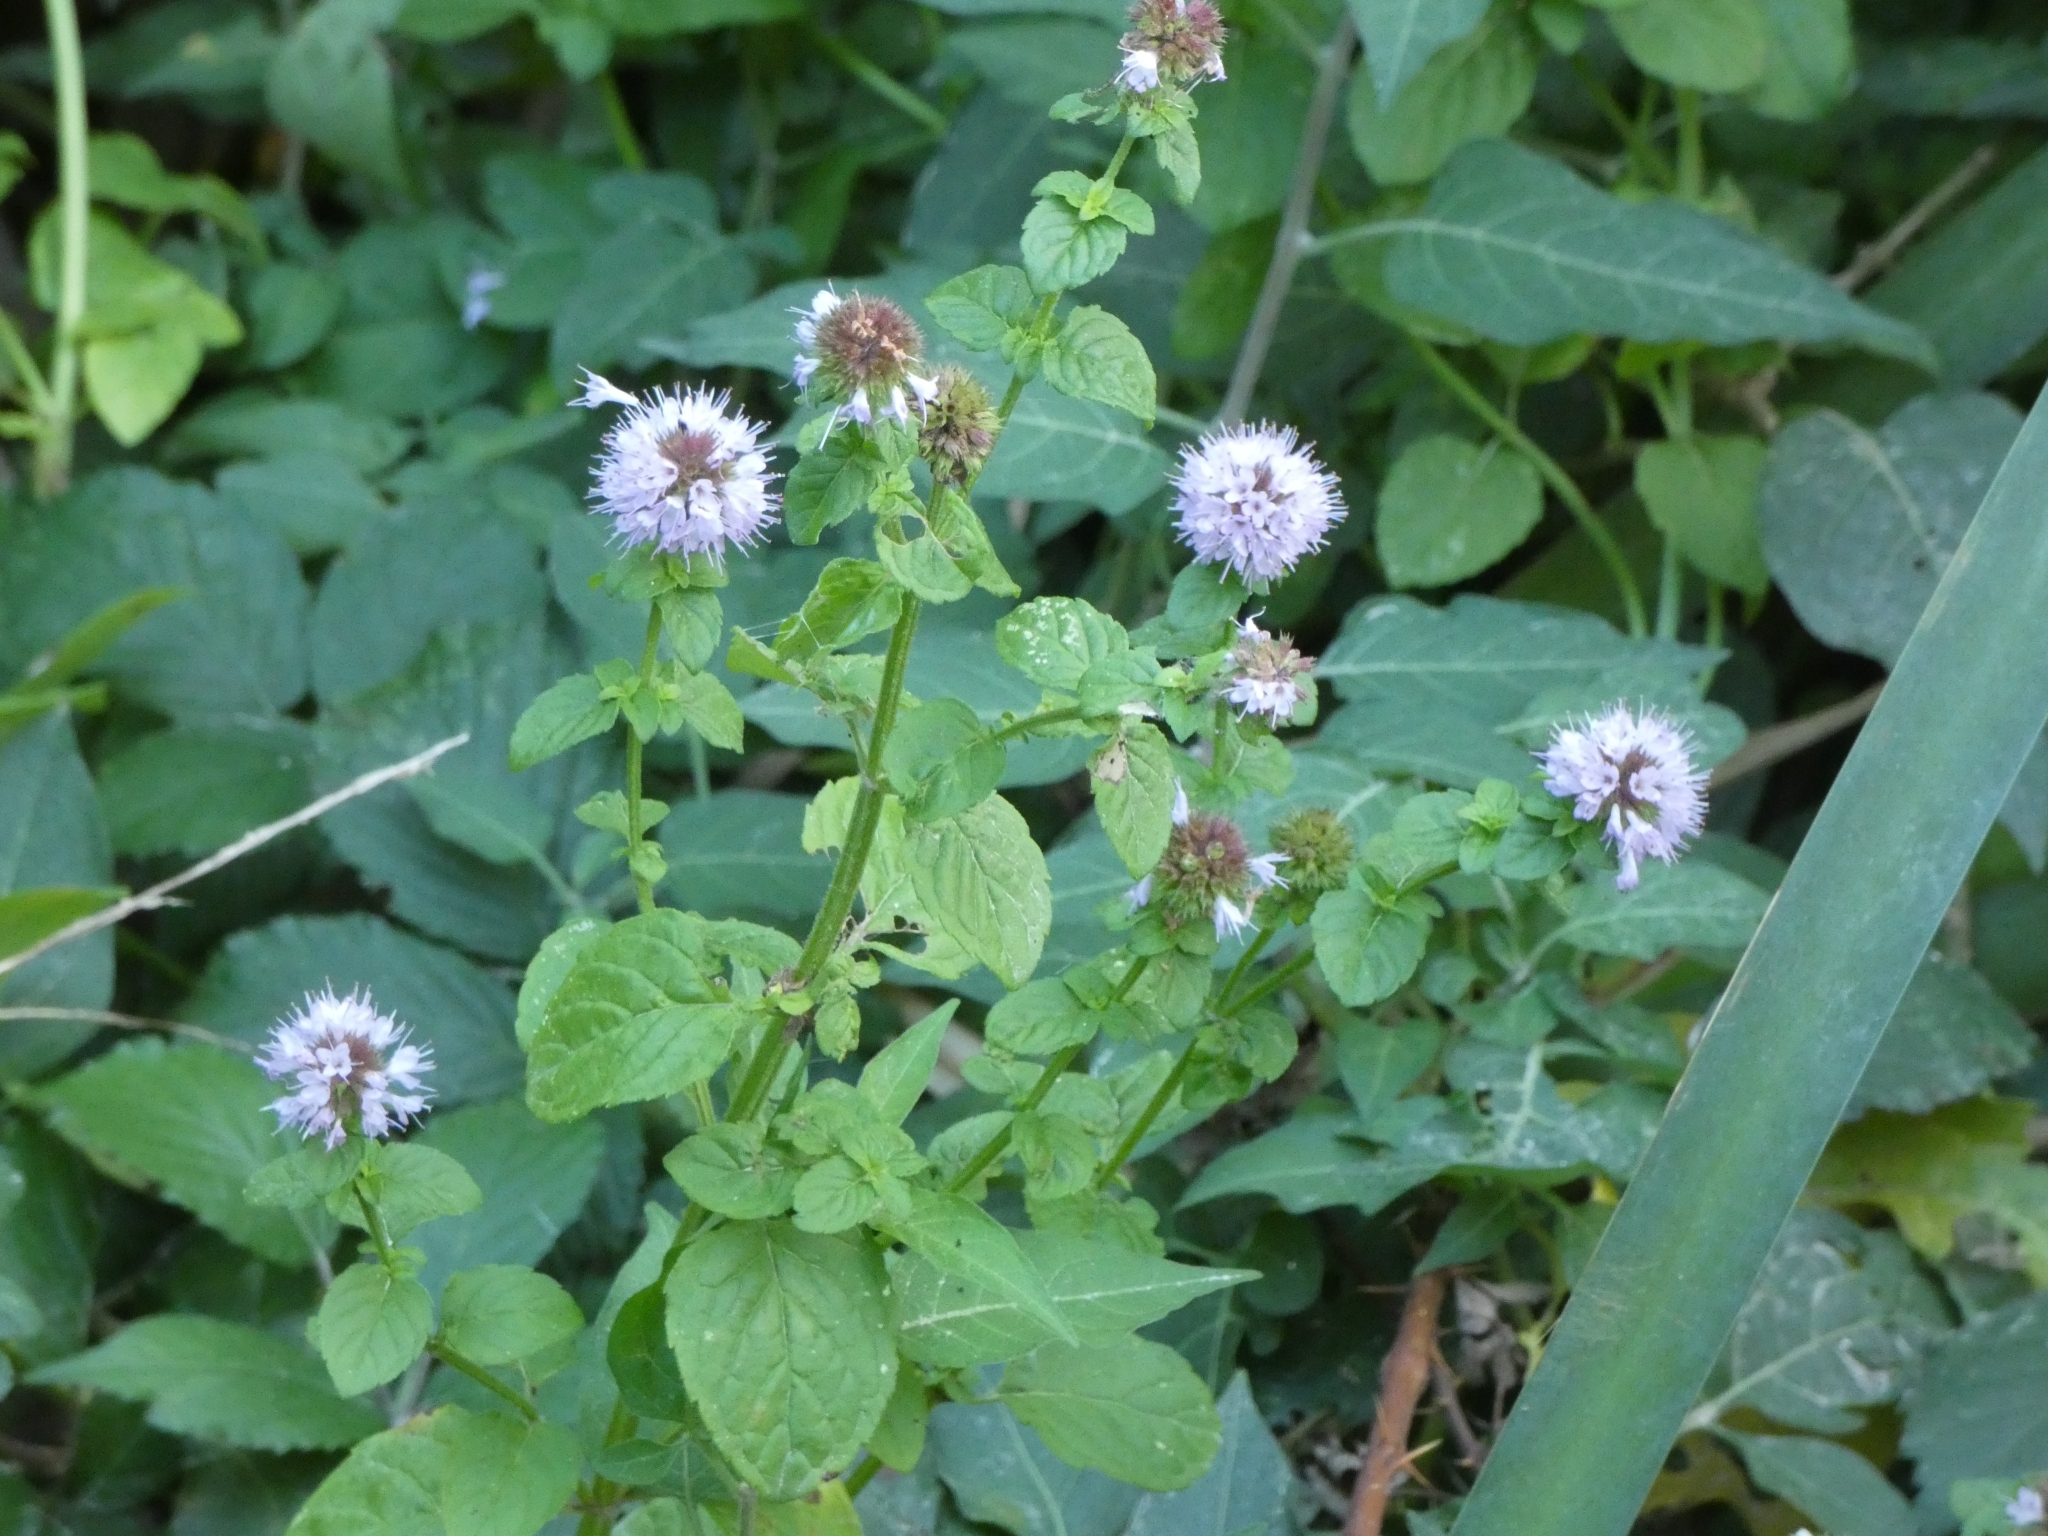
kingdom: Plantae
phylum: Tracheophyta
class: Magnoliopsida
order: Lamiales
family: Lamiaceae
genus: Mentha
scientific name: Mentha aquatica
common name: Water mint
